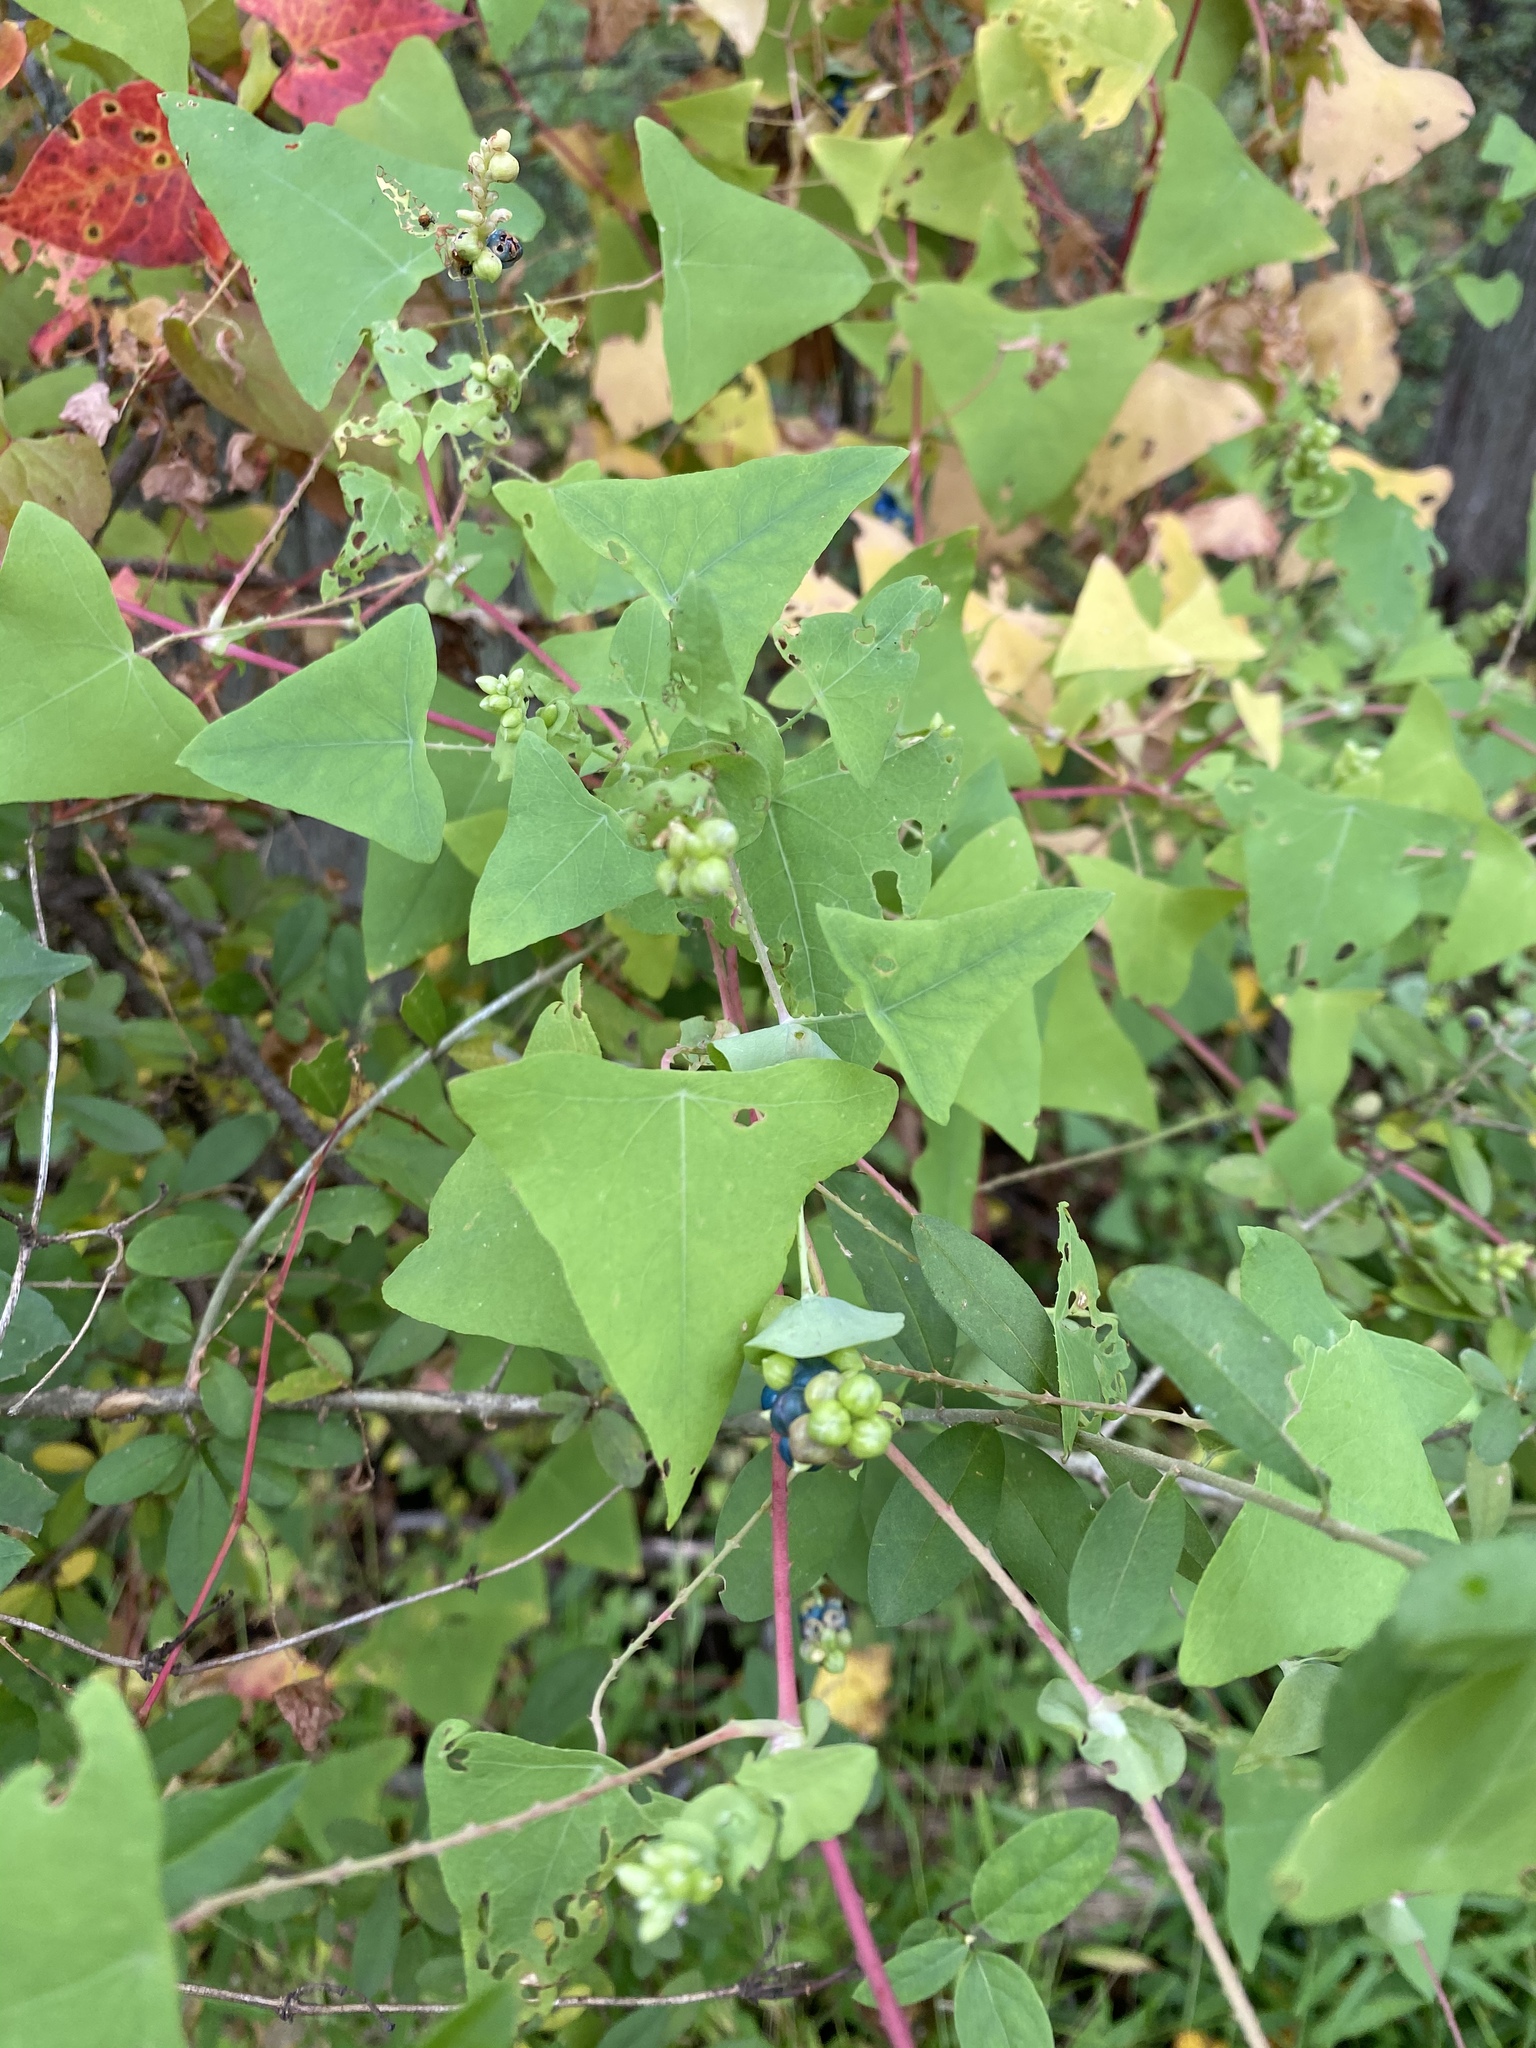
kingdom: Plantae
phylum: Tracheophyta
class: Magnoliopsida
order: Caryophyllales
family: Polygonaceae
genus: Persicaria
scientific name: Persicaria perfoliata
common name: Asiatic tearthumb
